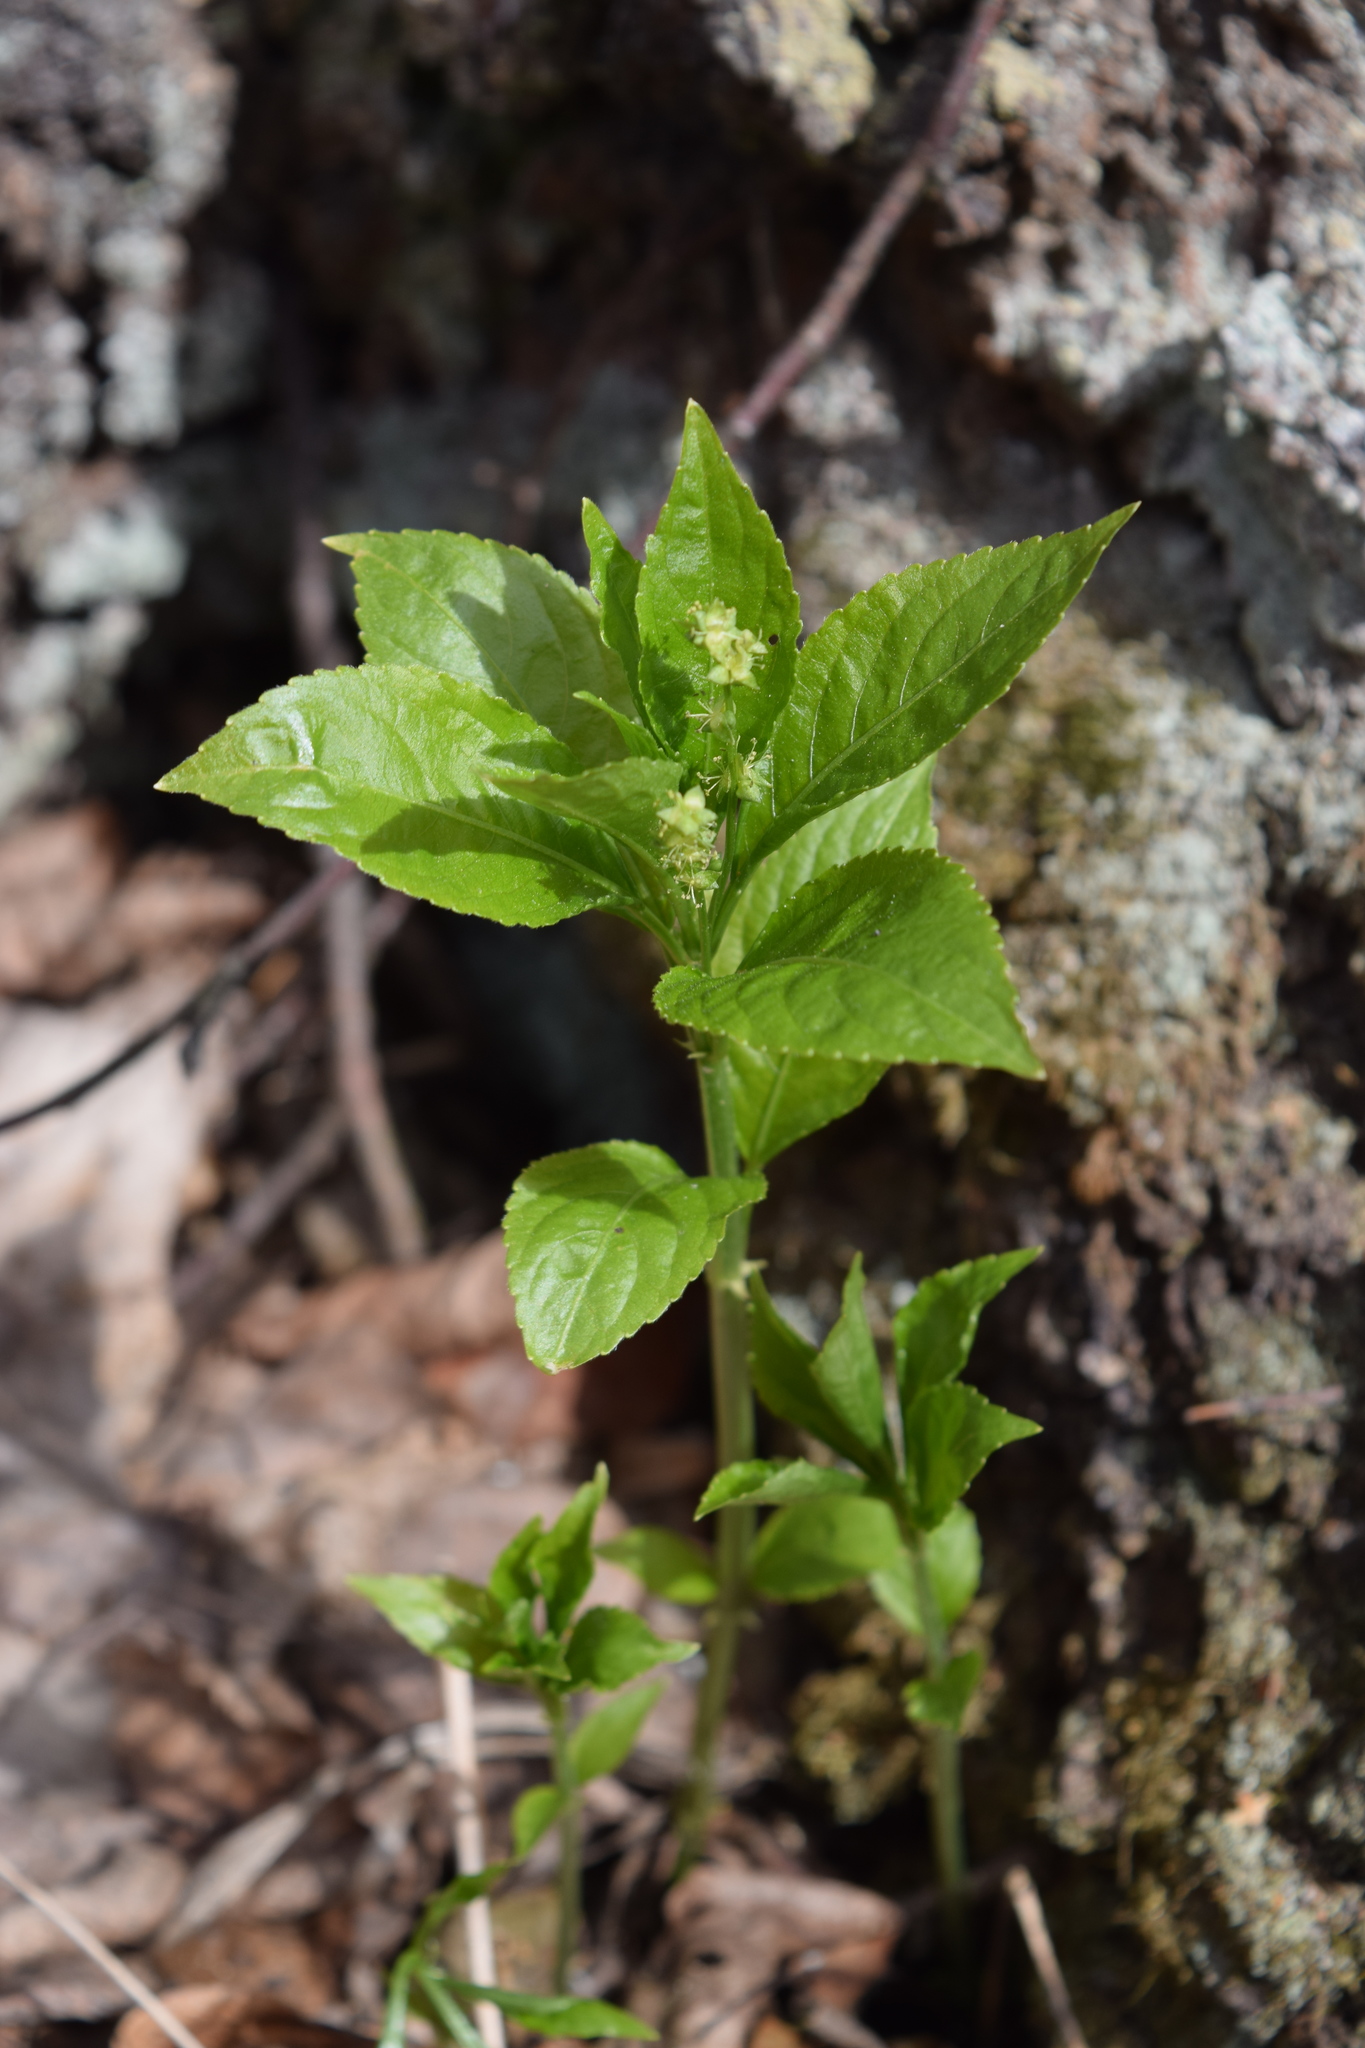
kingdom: Plantae
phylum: Tracheophyta
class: Magnoliopsida
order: Malpighiales
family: Euphorbiaceae
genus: Mercurialis
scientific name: Mercurialis perennis
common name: Dog mercury
